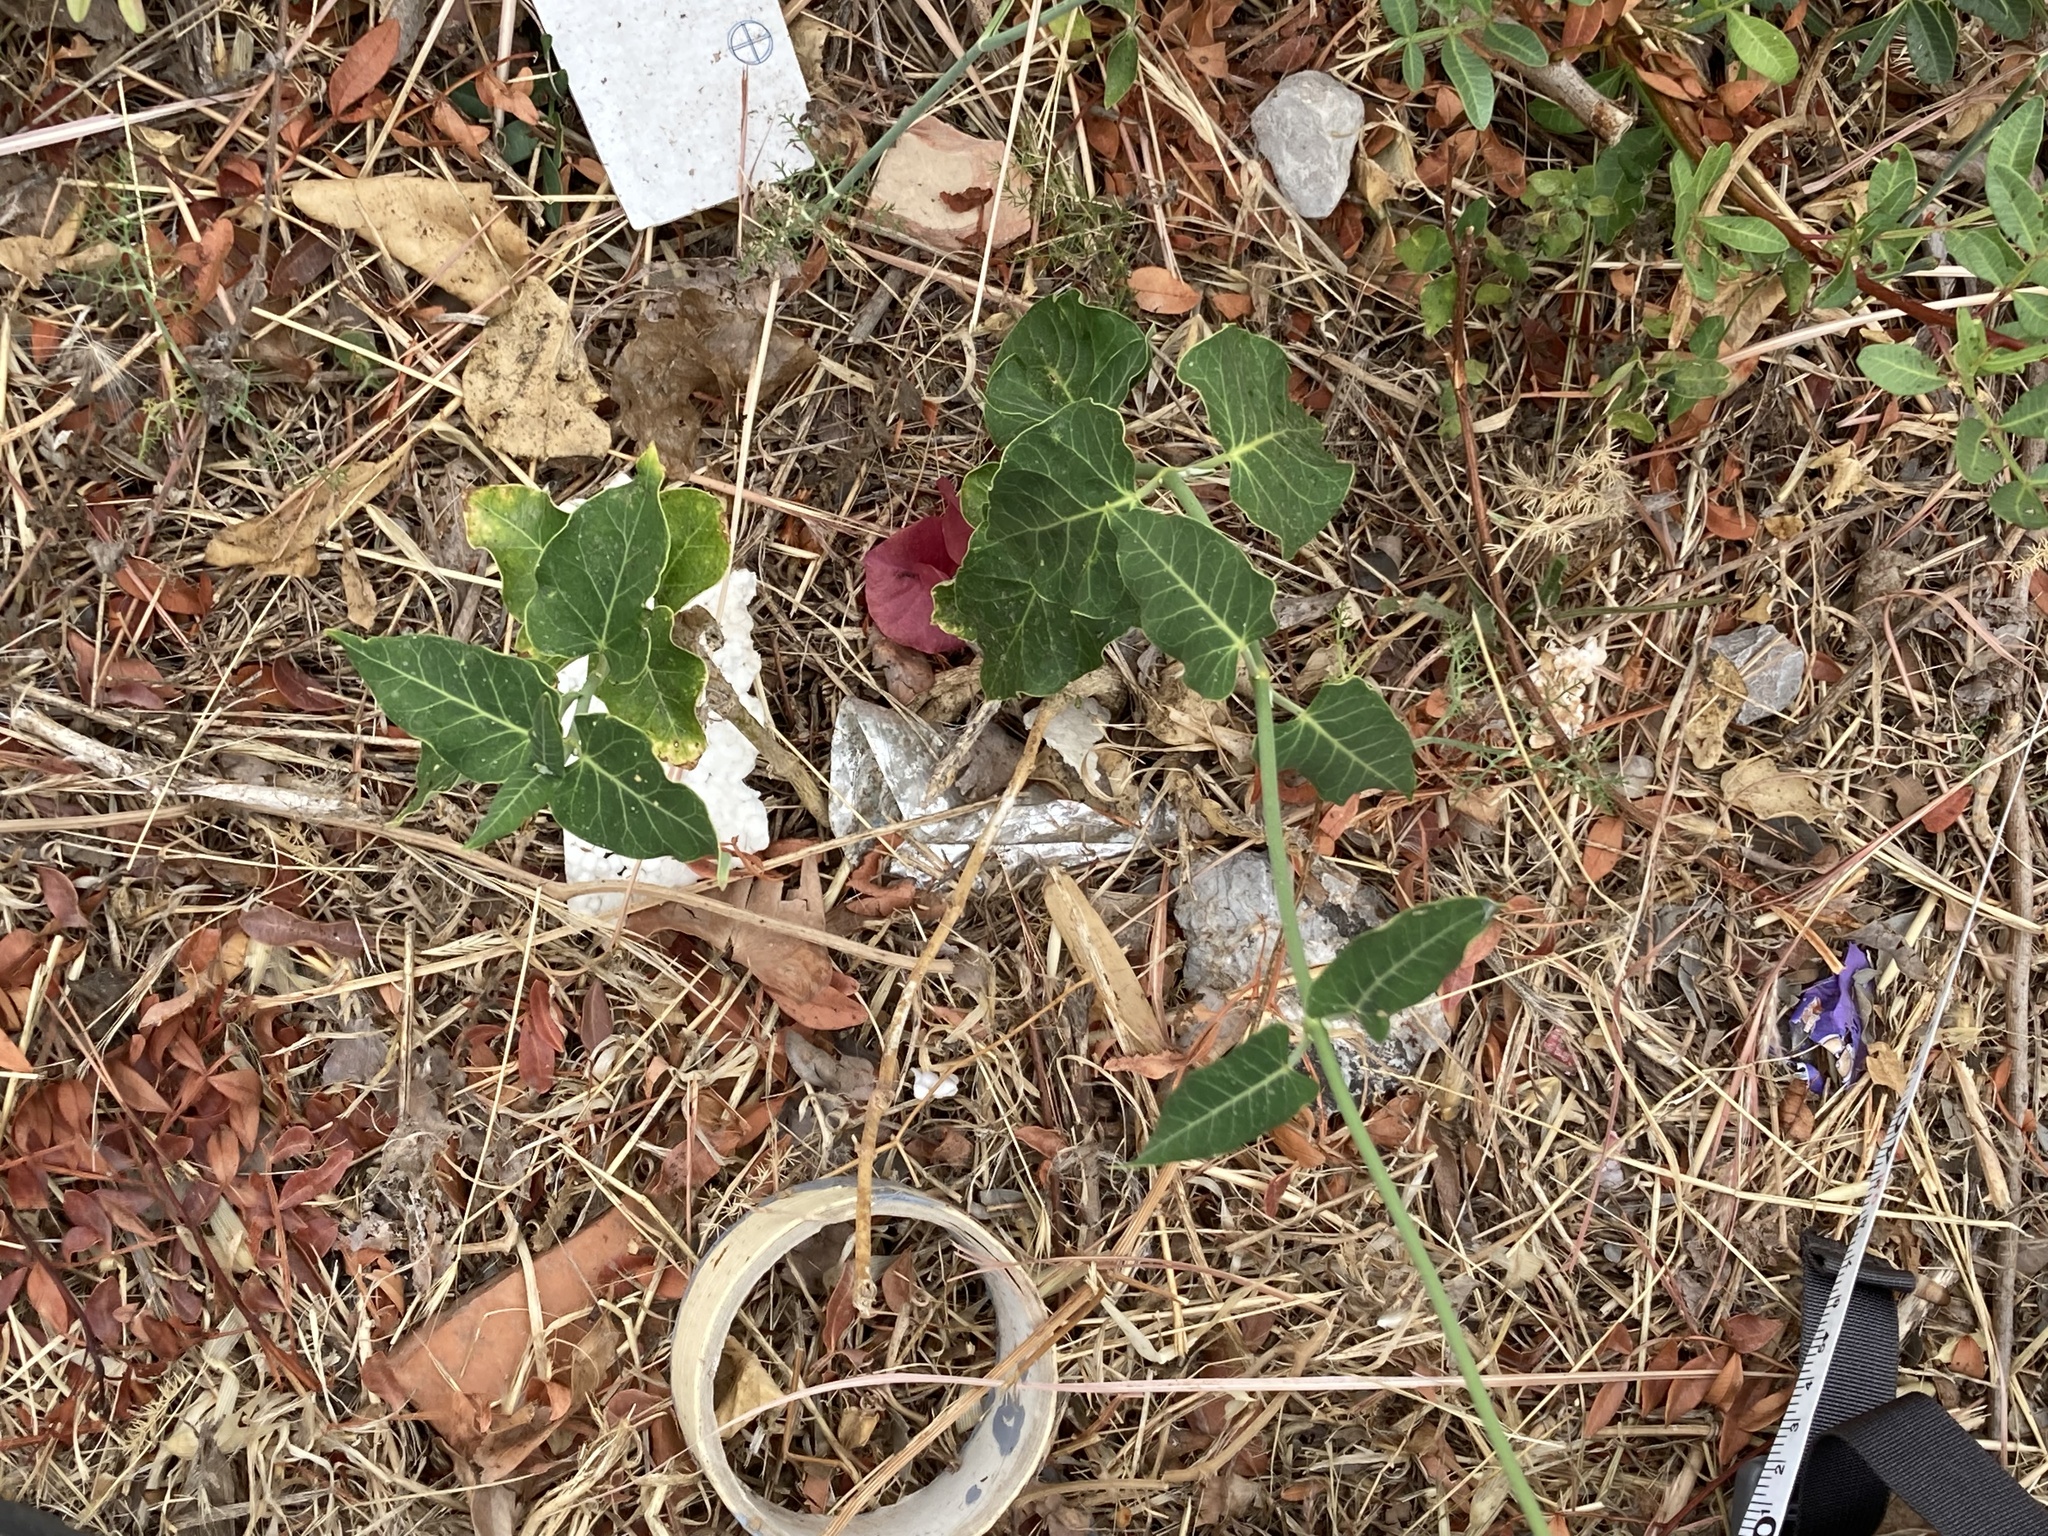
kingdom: Plantae
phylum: Tracheophyta
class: Magnoliopsida
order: Gentianales
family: Apocynaceae
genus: Araujia
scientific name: Araujia sericifera
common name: White bladderflower
